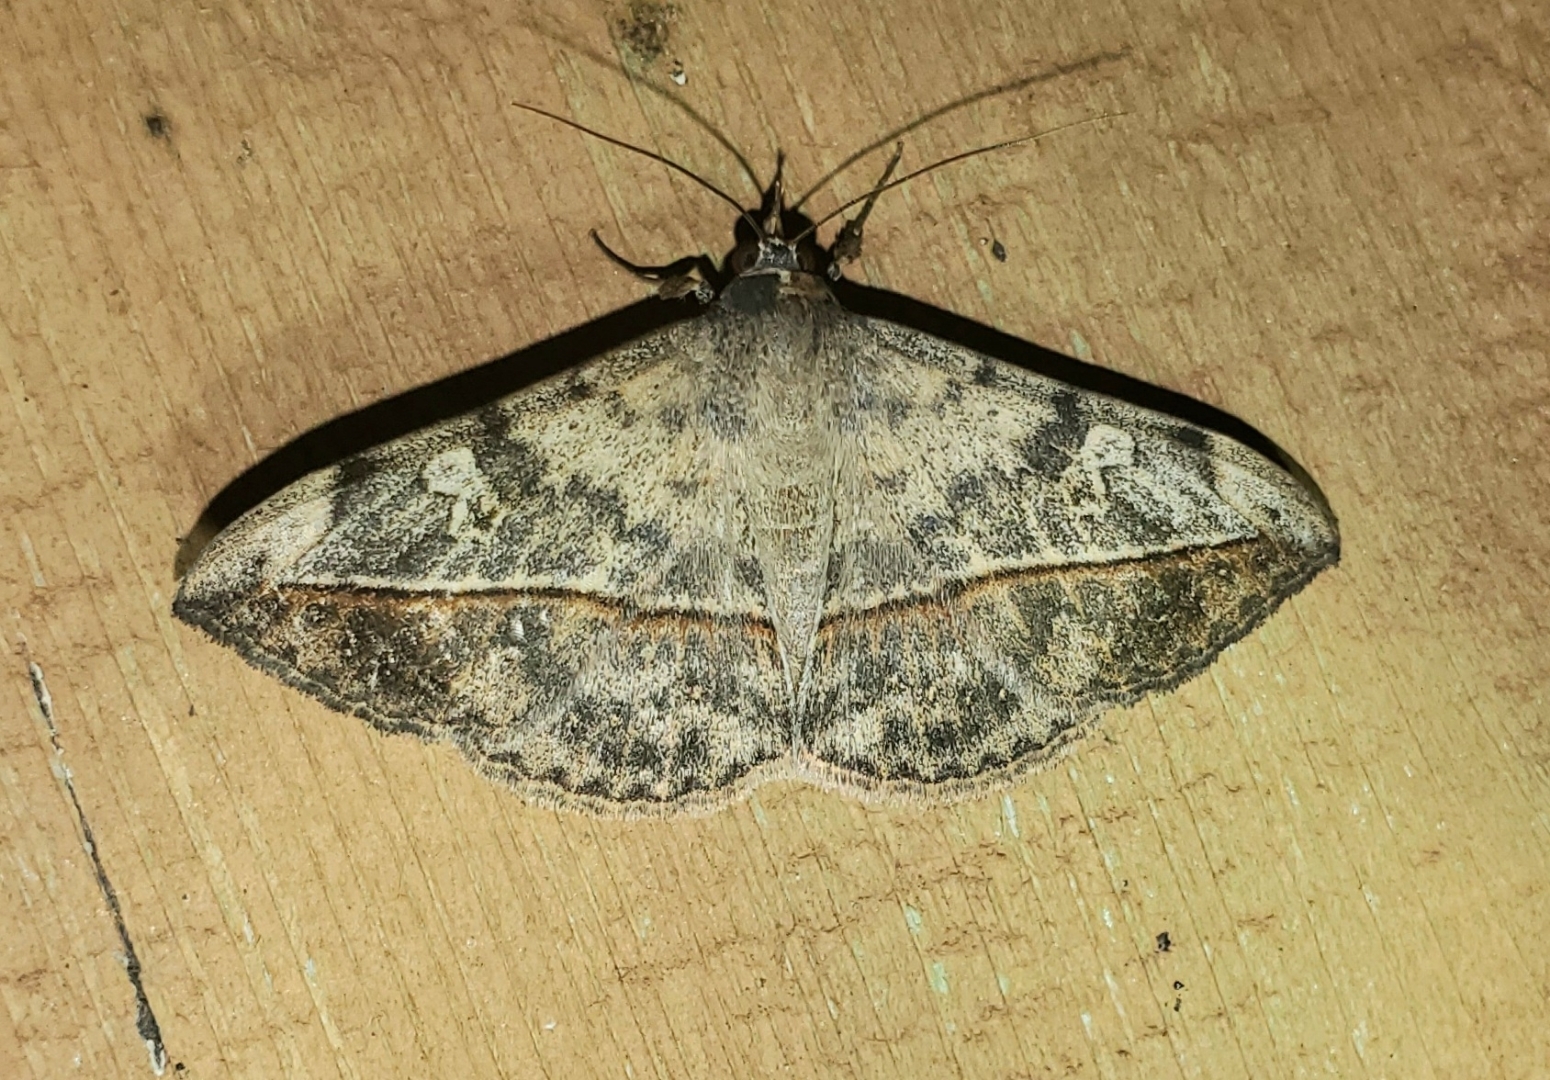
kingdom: Animalia
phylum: Arthropoda
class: Insecta
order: Lepidoptera
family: Erebidae
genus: Anticarsia
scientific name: Anticarsia gemmatalis
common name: Cutworm moth
